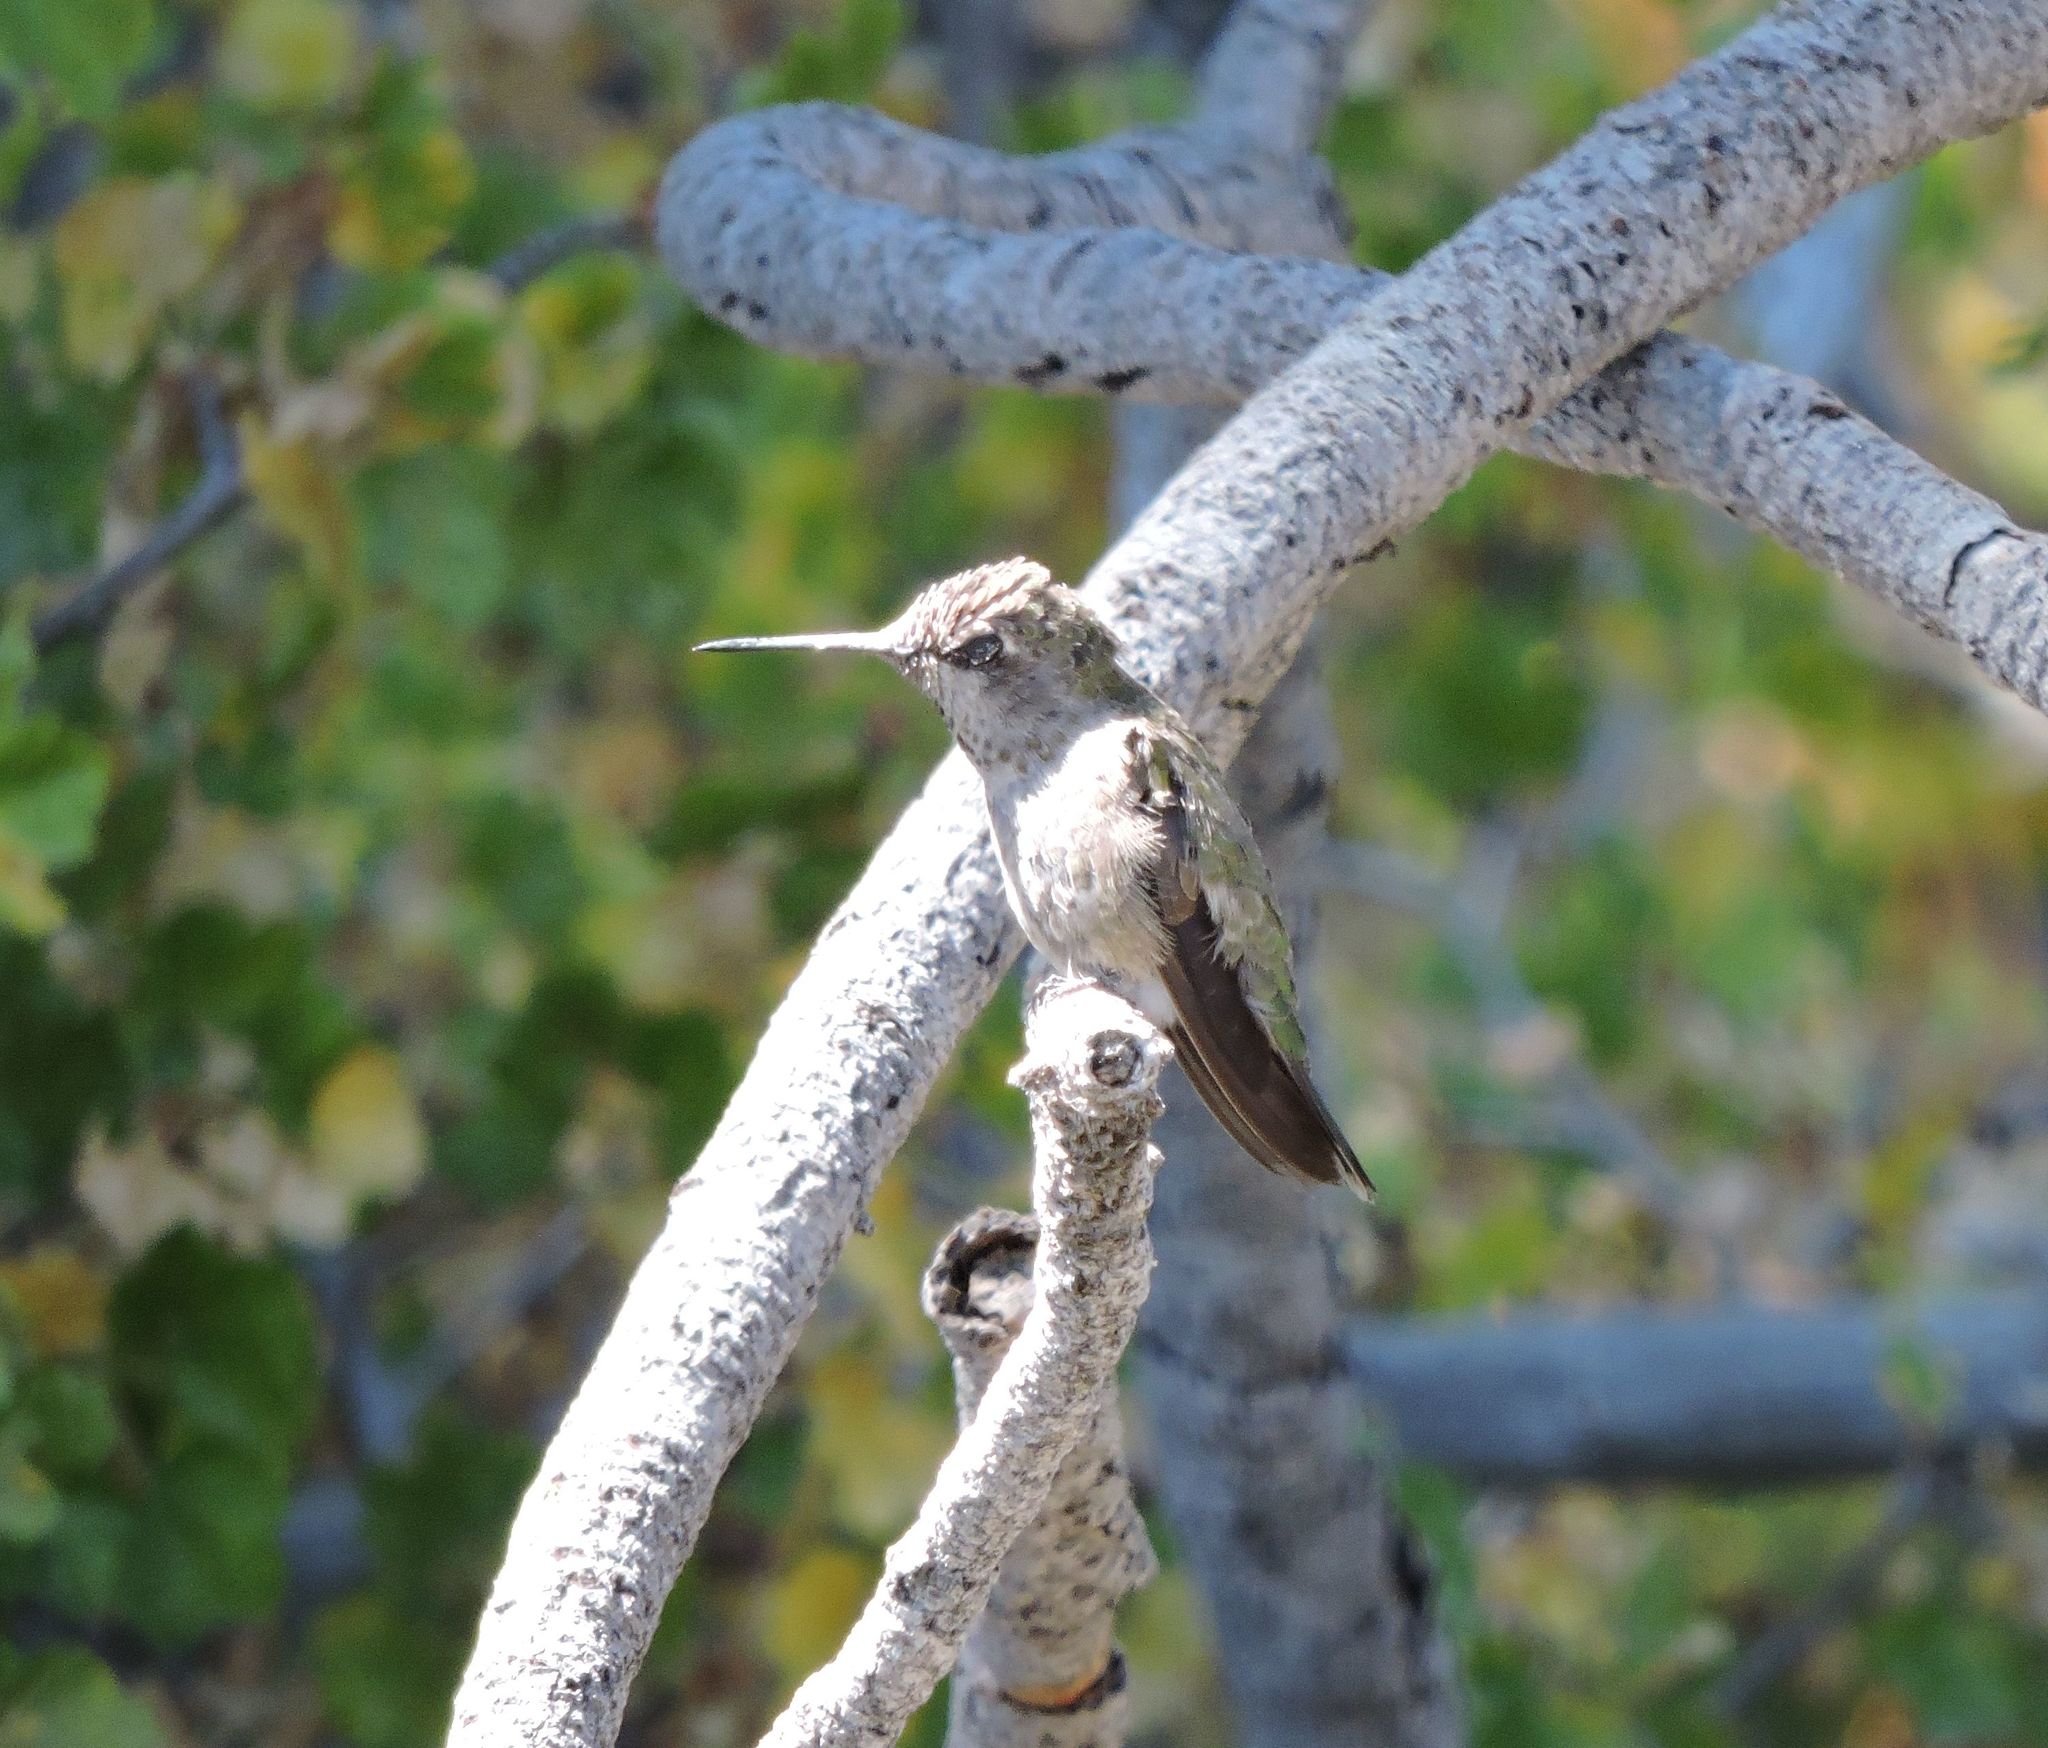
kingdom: Animalia
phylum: Chordata
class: Aves
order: Apodiformes
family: Trochilidae
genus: Calypte
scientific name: Calypte anna
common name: Anna's hummingbird
